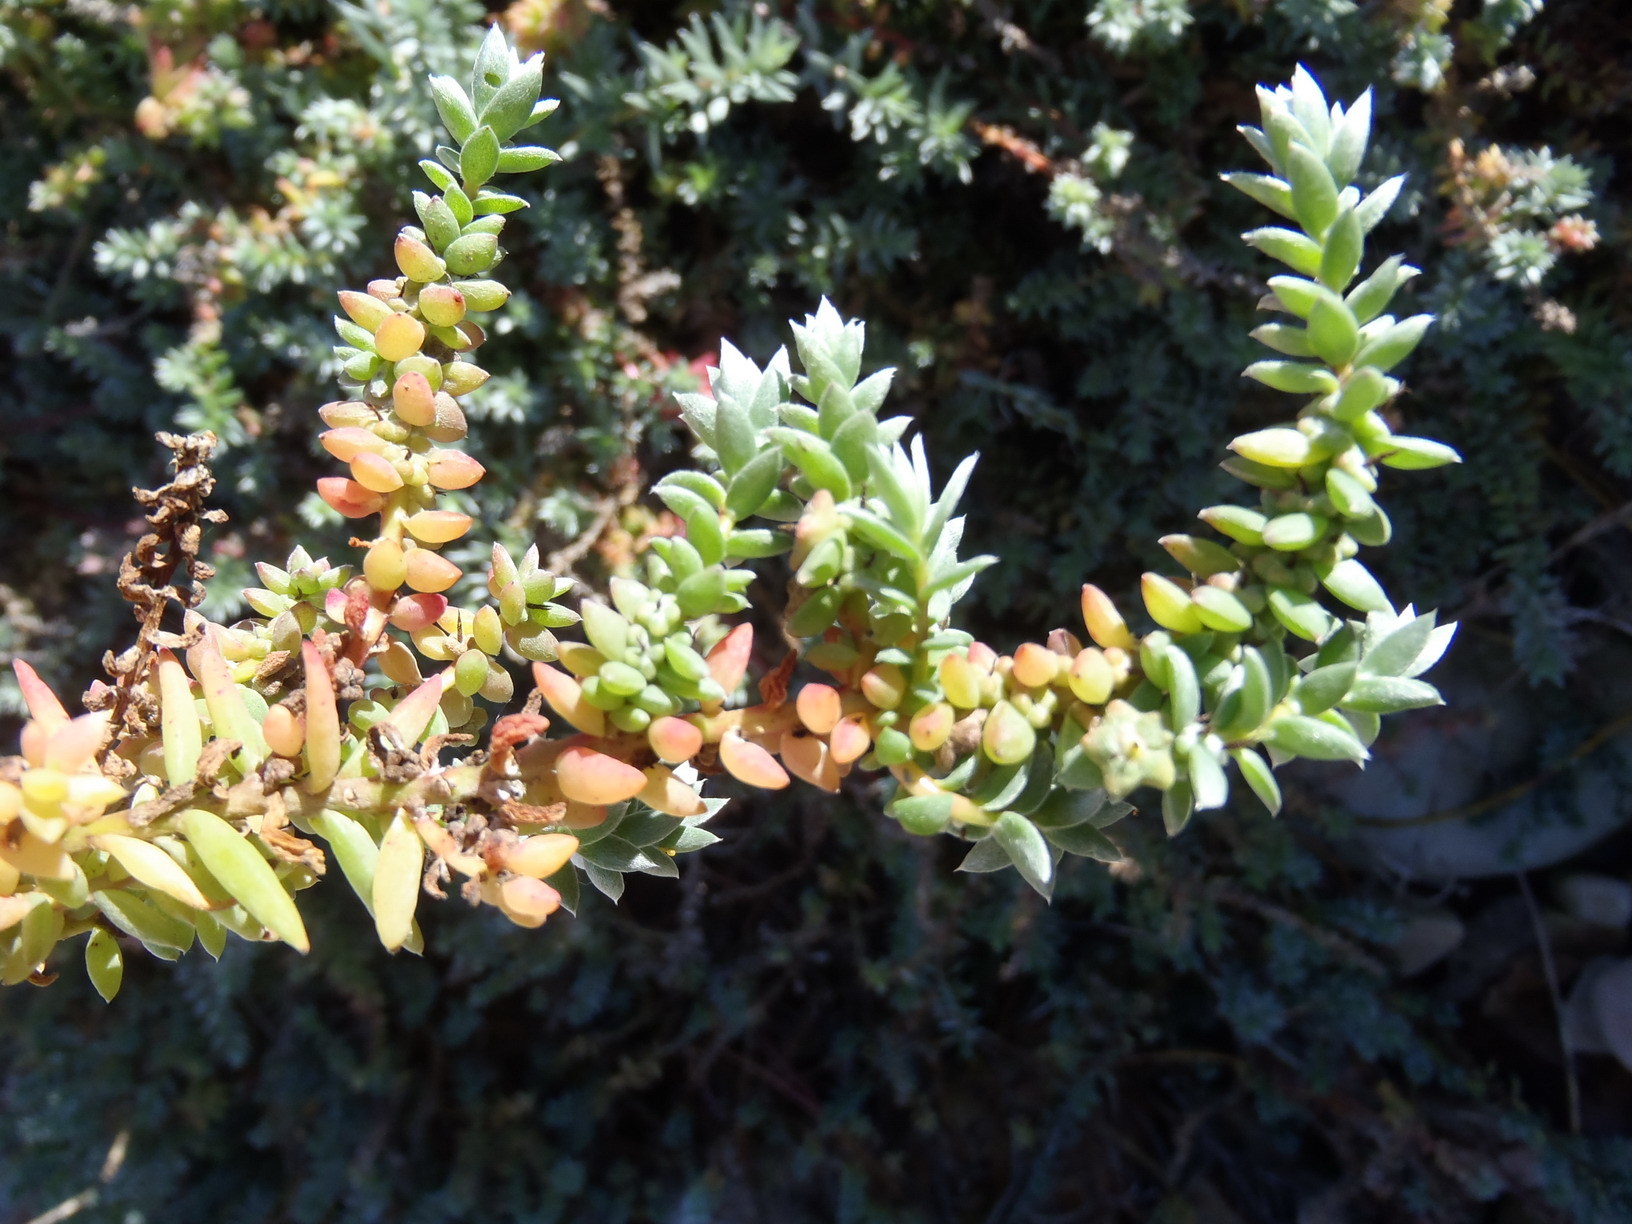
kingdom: Plantae
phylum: Tracheophyta
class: Magnoliopsida
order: Caryophyllales
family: Amaranthaceae
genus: Chenolea
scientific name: Chenolea diffusa
